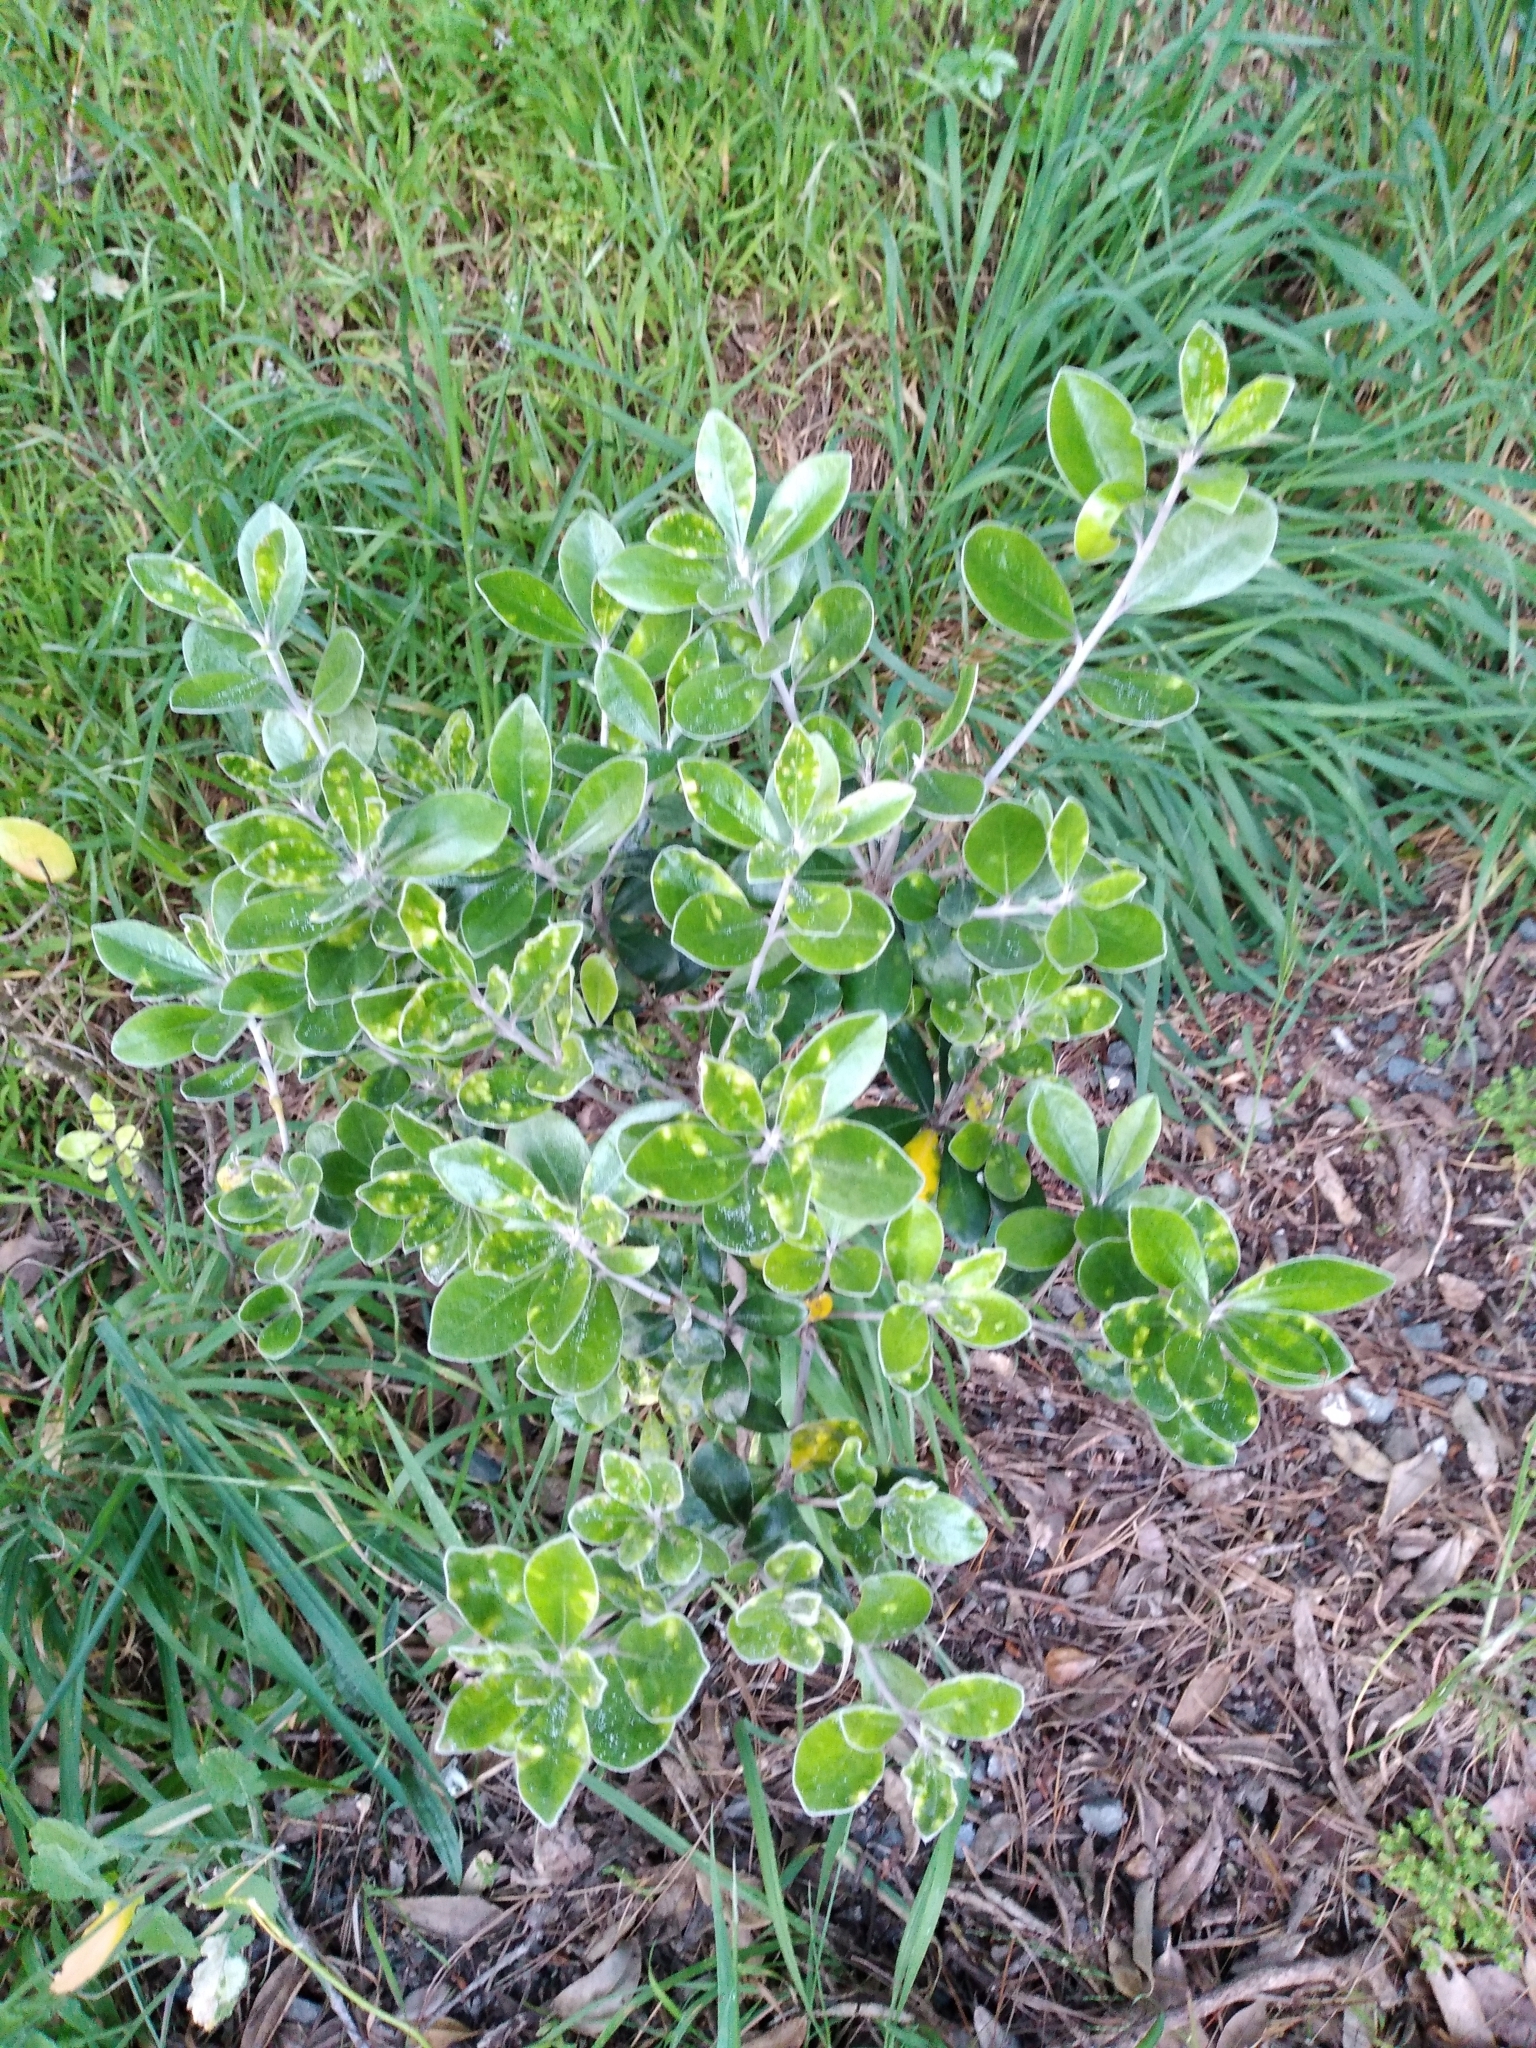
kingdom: Plantae
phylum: Tracheophyta
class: Magnoliopsida
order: Apiales
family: Pittosporaceae
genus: Pittosporum
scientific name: Pittosporum crassifolium
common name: Karo
